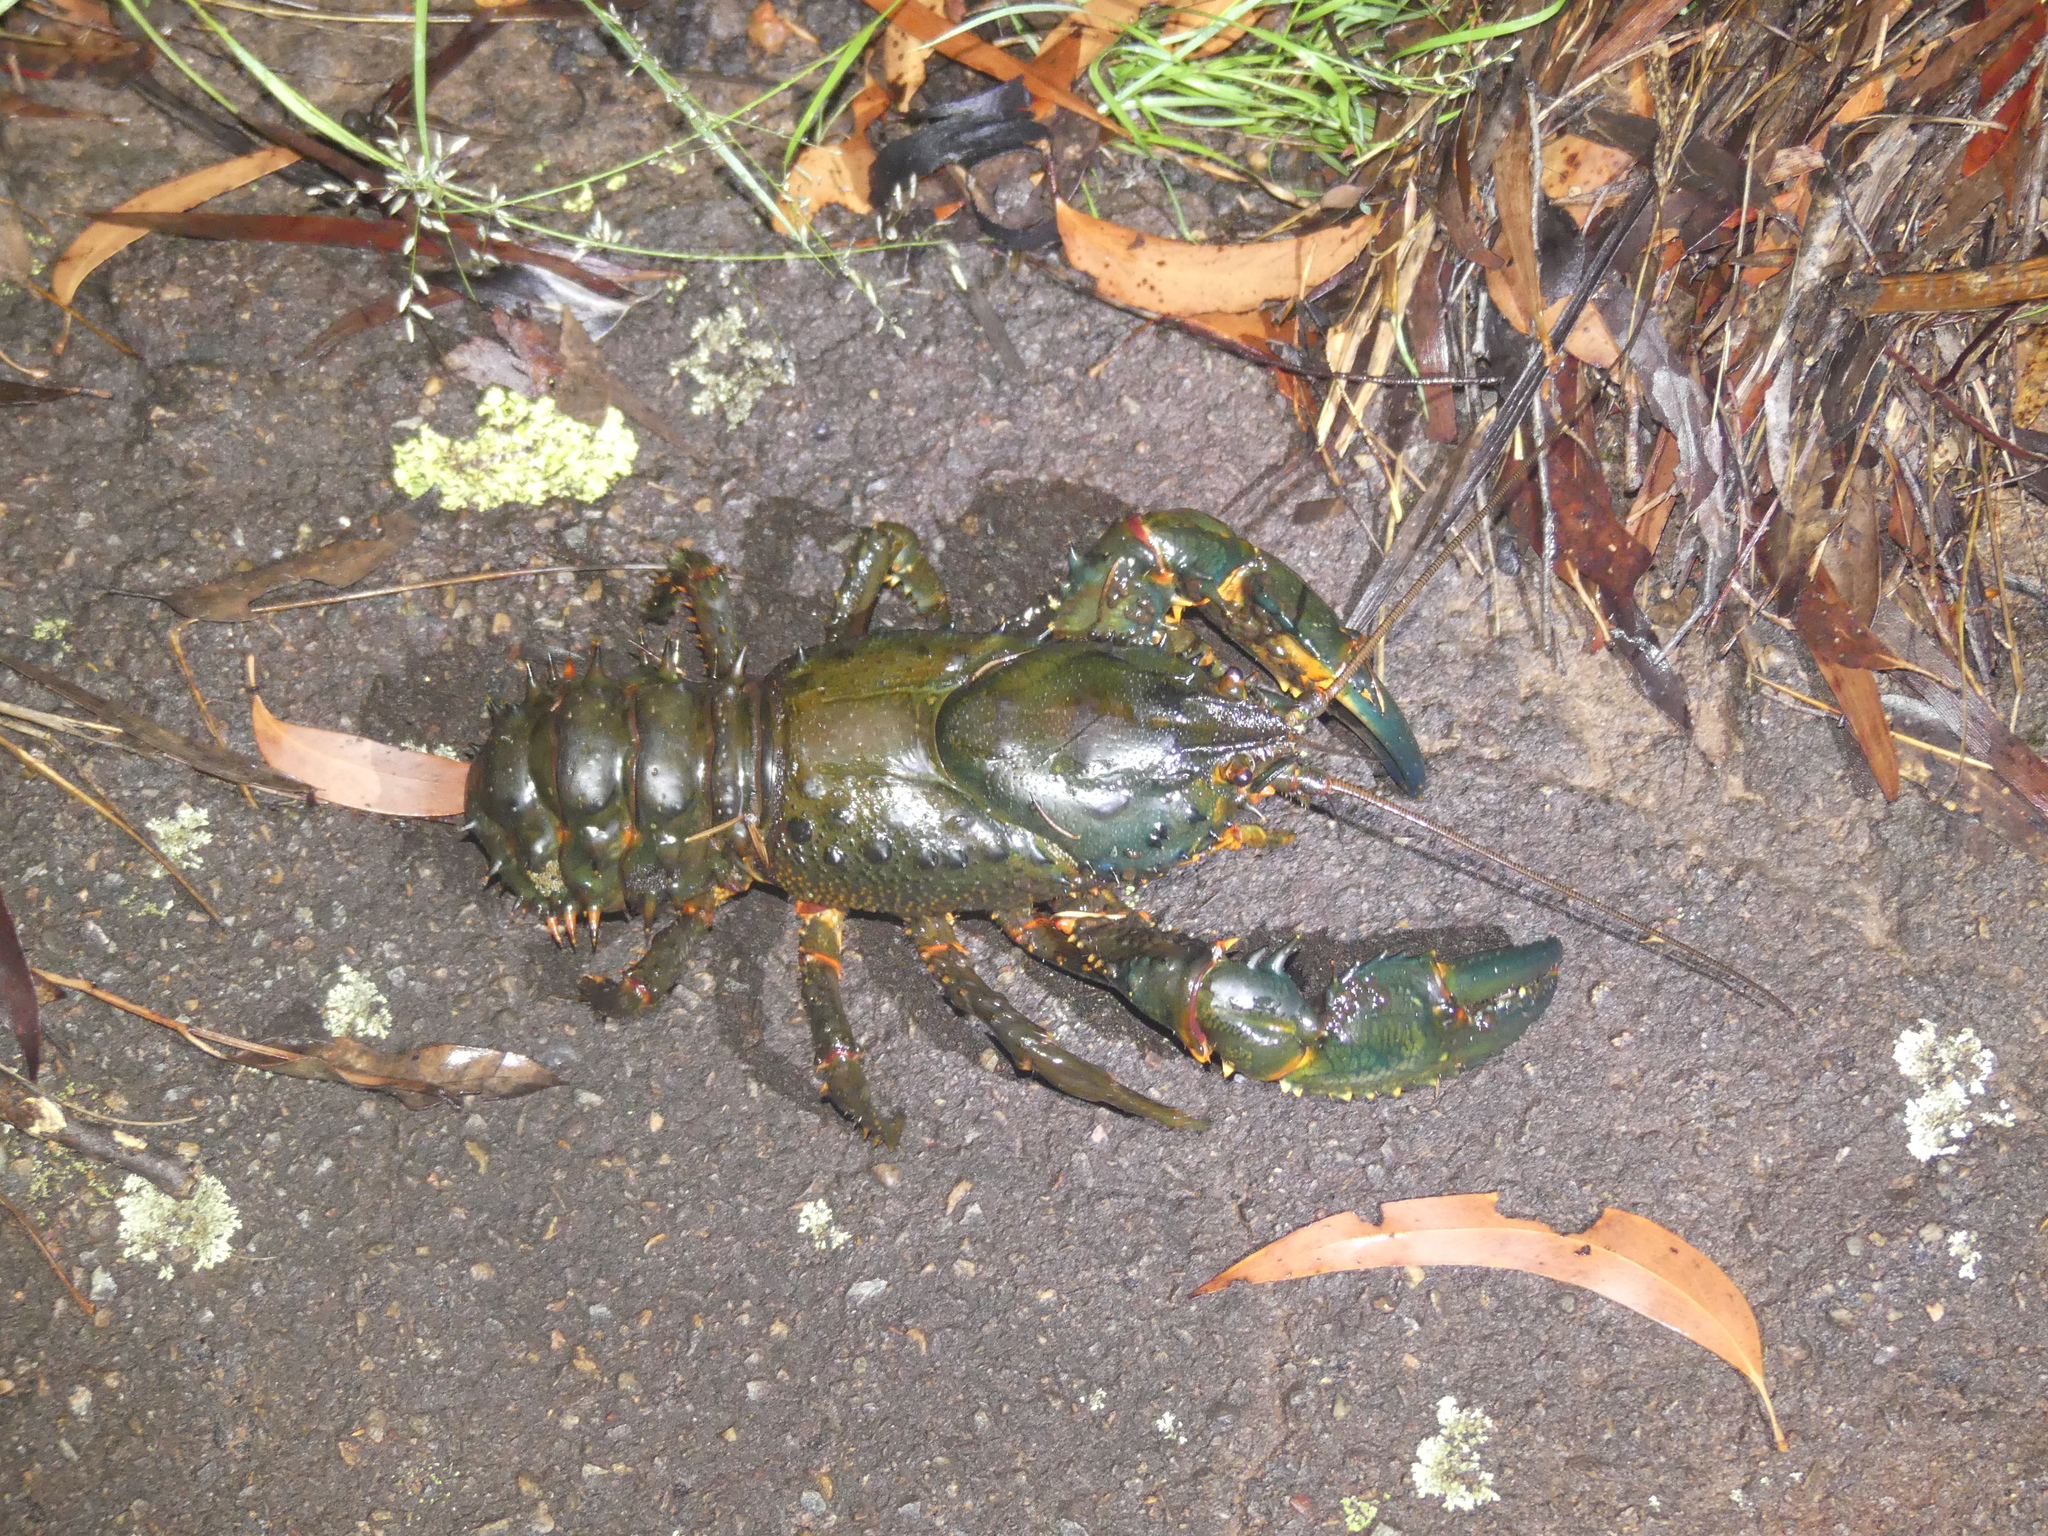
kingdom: Animalia
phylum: Arthropoda
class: Malacostraca
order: Decapoda
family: Parastacidae
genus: Euastacus
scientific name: Euastacus spinifer
